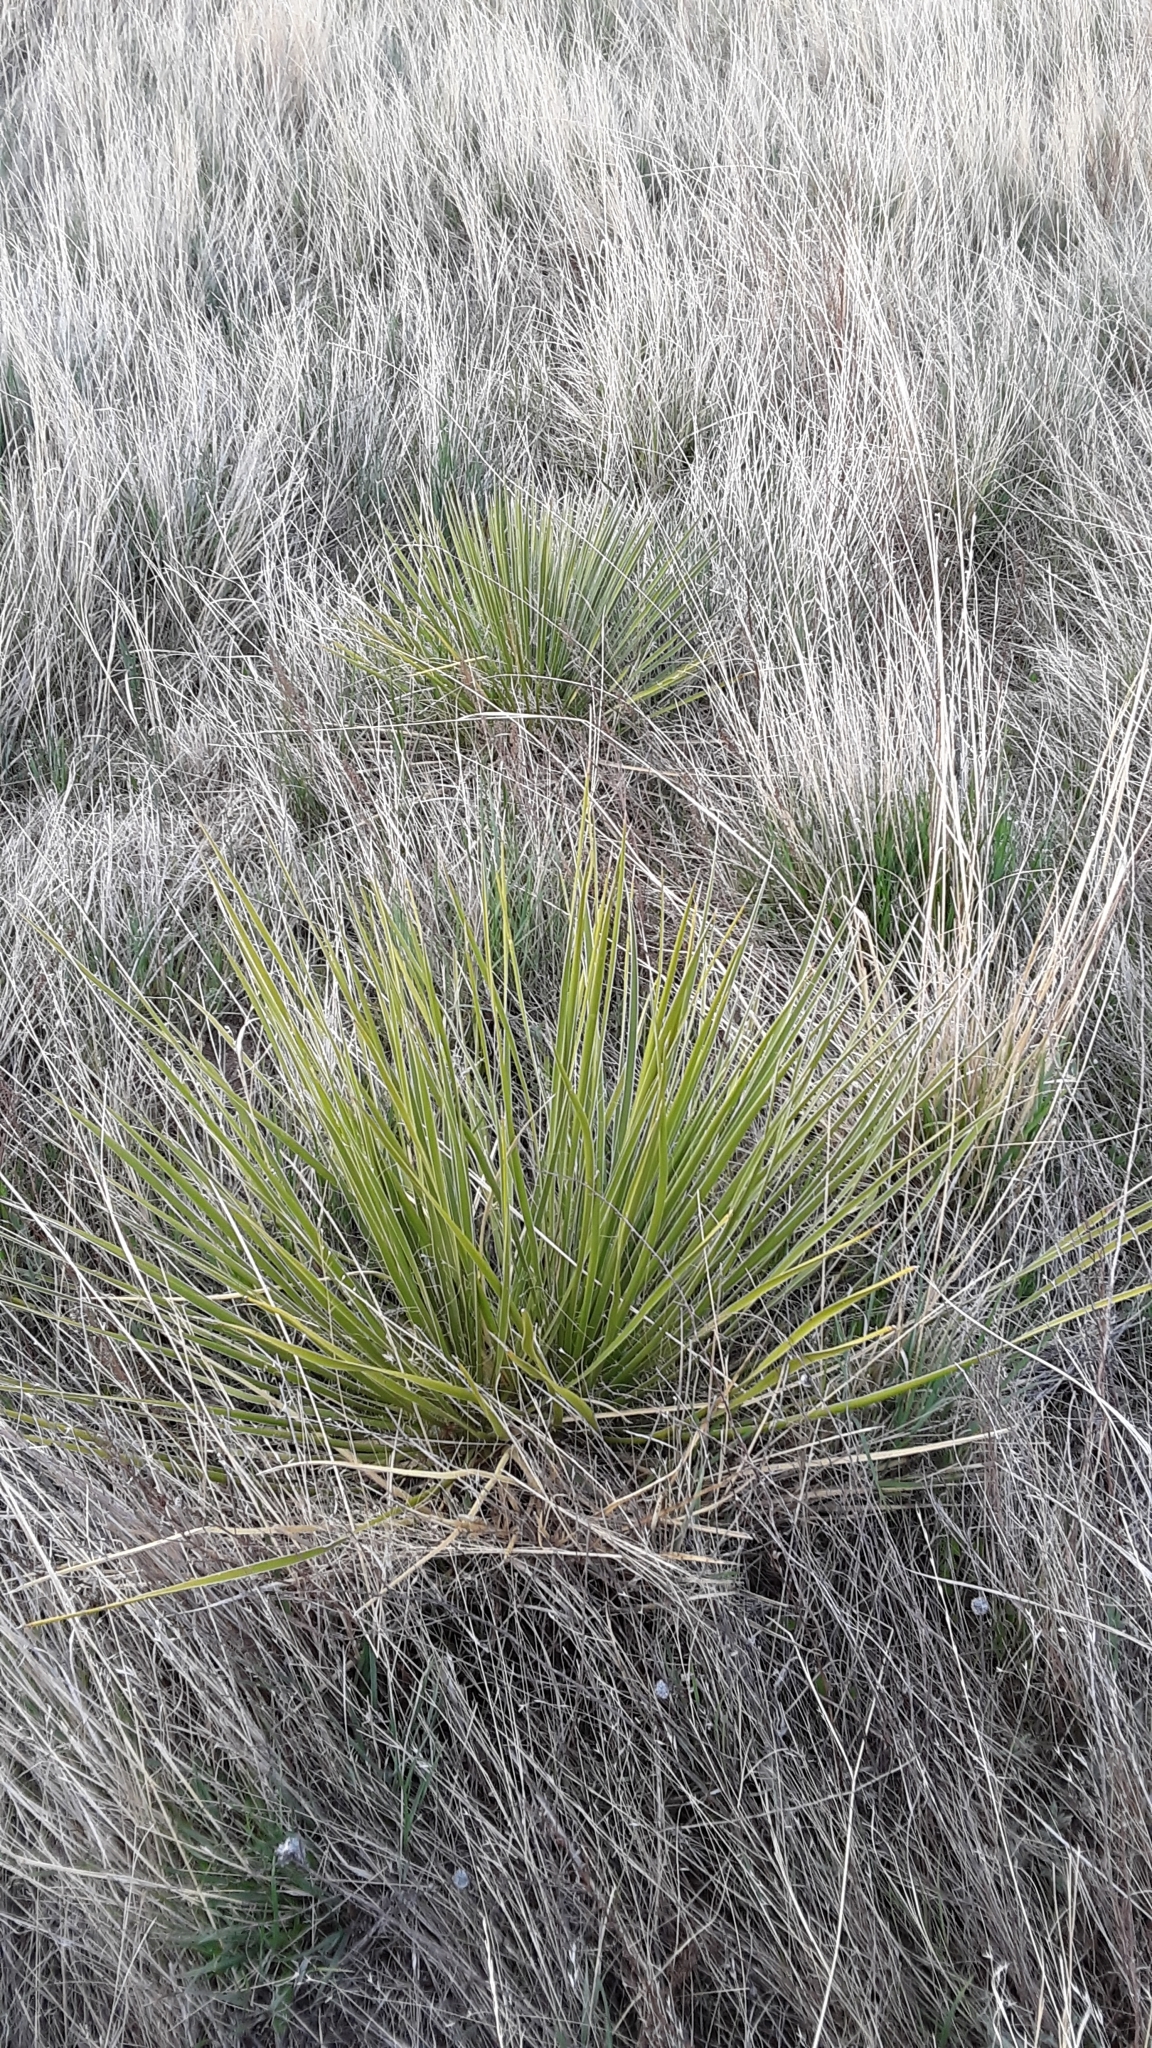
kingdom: Plantae
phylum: Tracheophyta
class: Liliopsida
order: Asparagales
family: Asparagaceae
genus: Yucca
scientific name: Yucca glauca
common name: Great plains yucca
